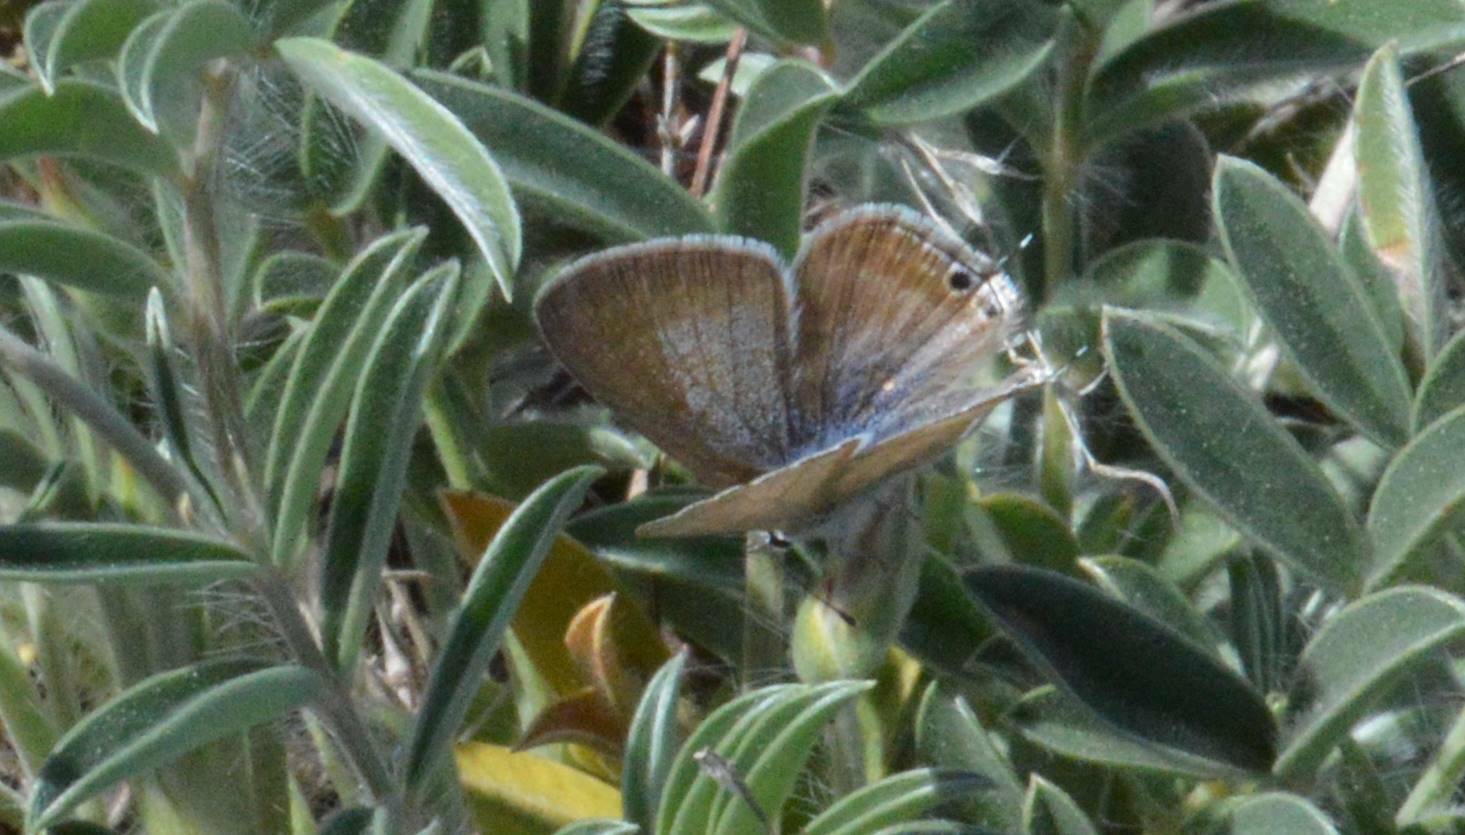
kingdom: Animalia
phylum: Arthropoda
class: Insecta
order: Lepidoptera
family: Lycaenidae
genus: Lampides
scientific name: Lampides boeticus
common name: Long-tailed blue
